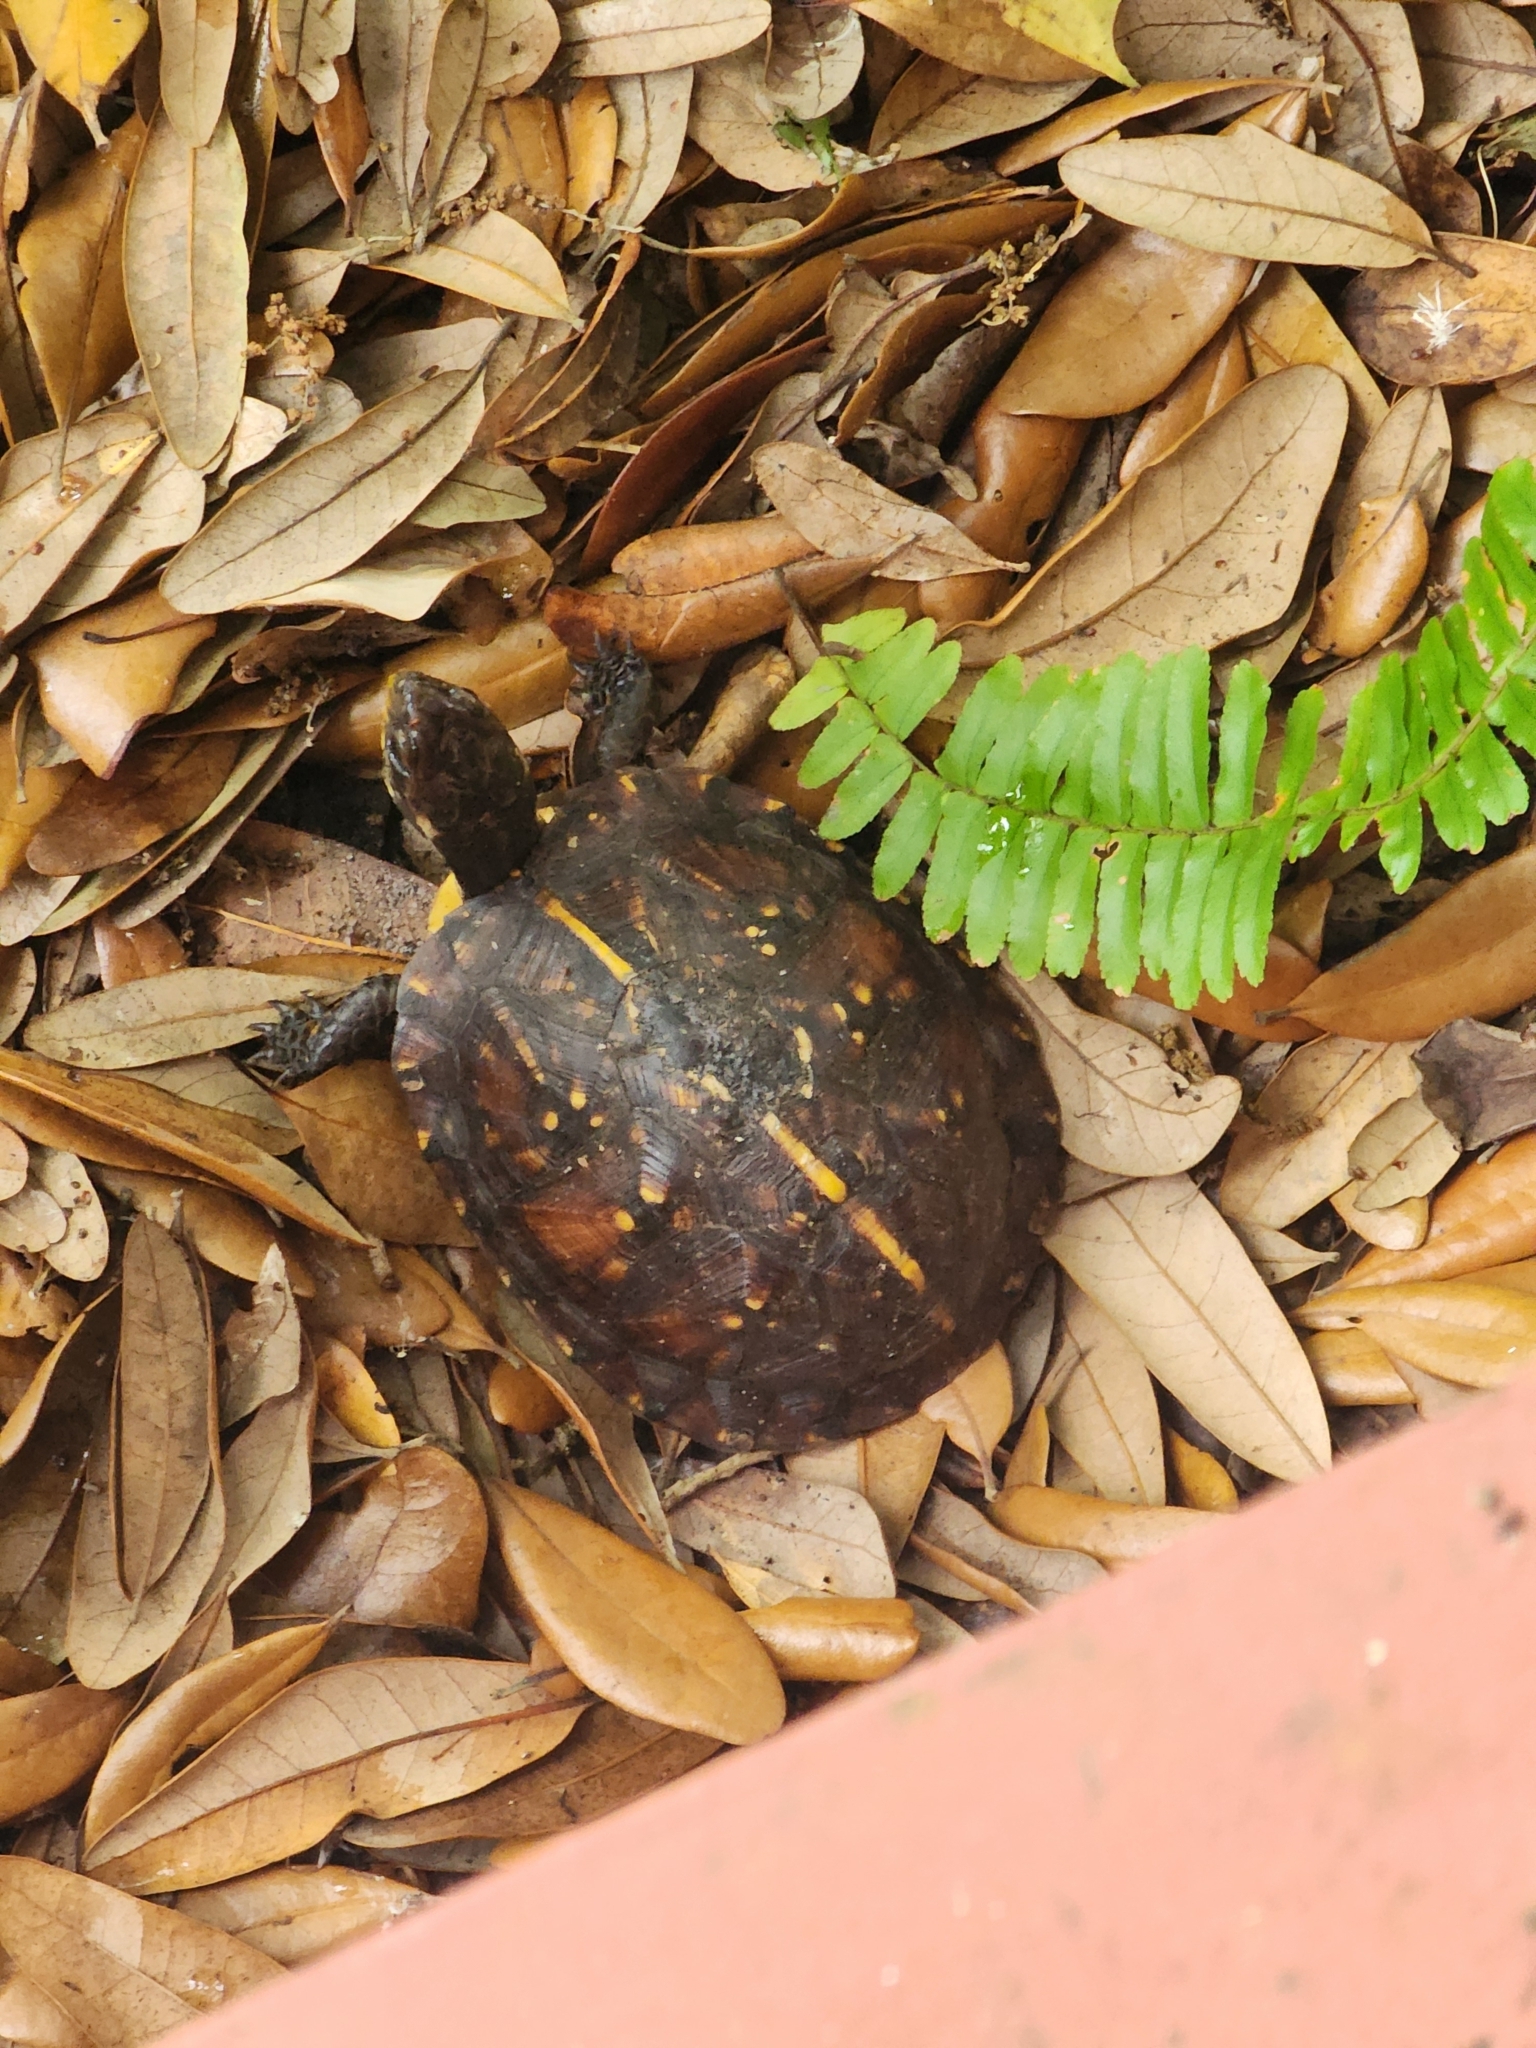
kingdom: Animalia
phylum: Chordata
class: Testudines
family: Emydidae
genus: Terrapene
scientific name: Terrapene carolina
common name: Common box turtle
